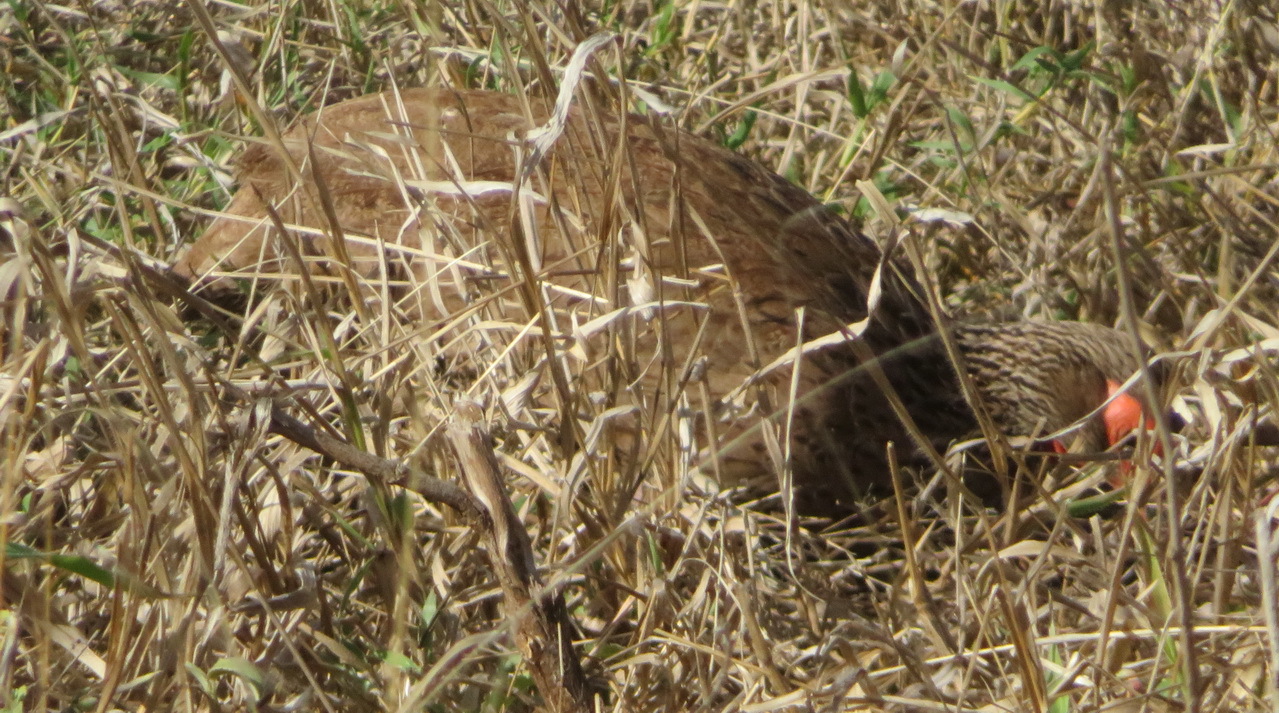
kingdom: Animalia
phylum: Chordata
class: Aves
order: Galliformes
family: Phasianidae
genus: Pternistis
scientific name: Pternistis swainsonii
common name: Swainson's spurfowl
